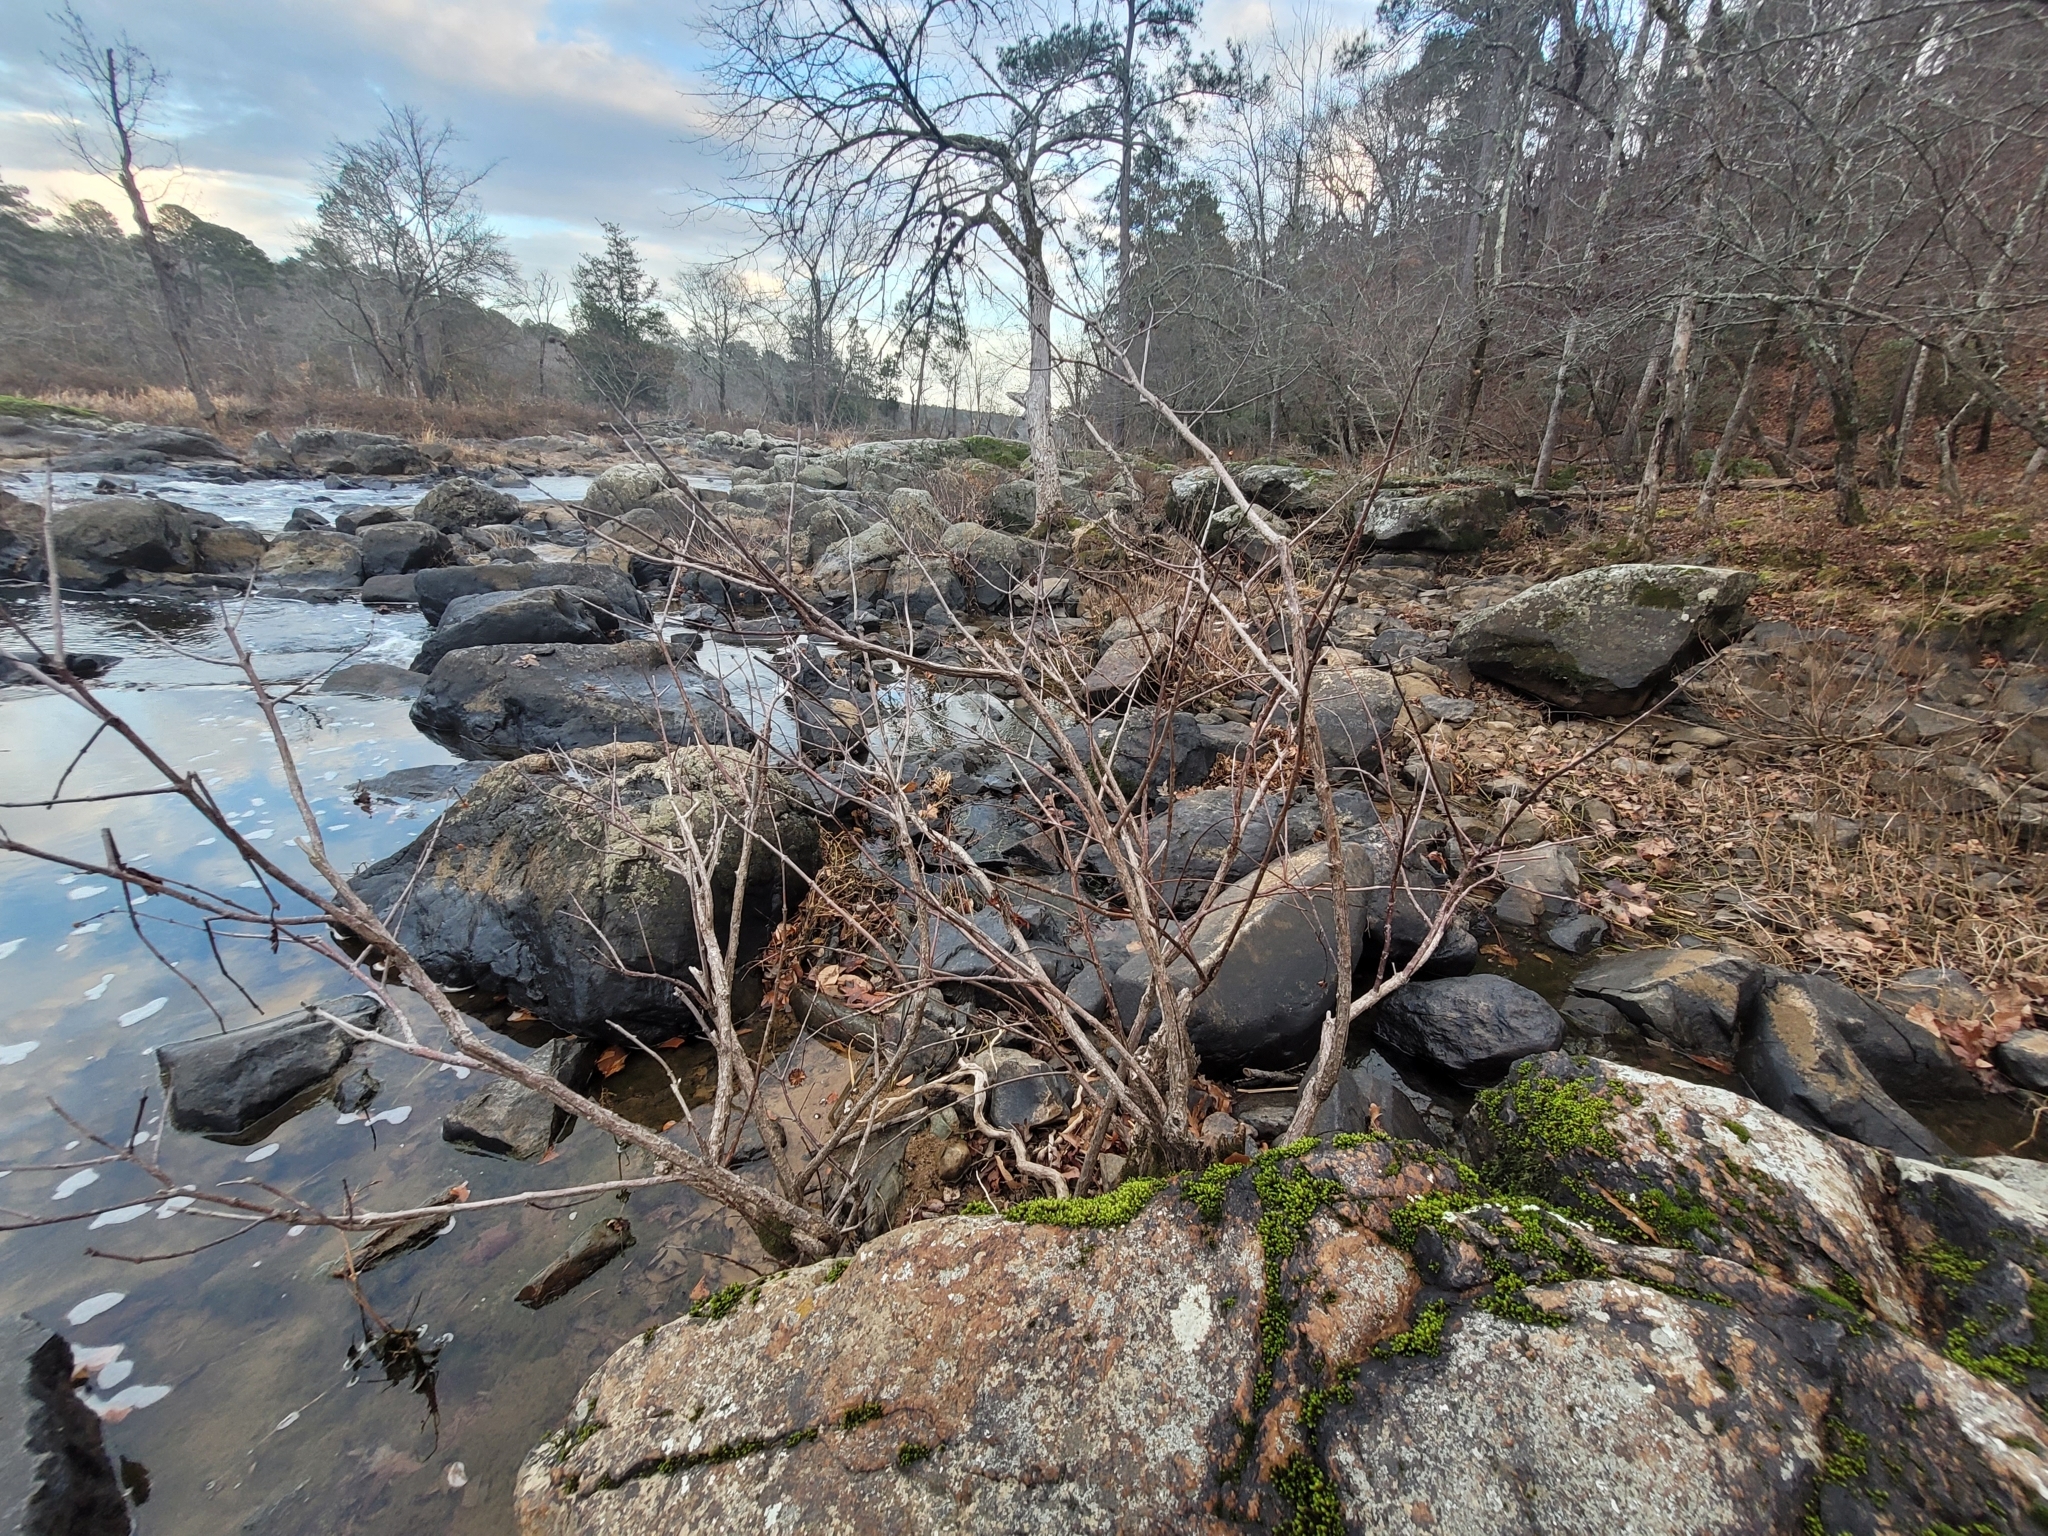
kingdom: Plantae
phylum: Tracheophyta
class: Magnoliopsida
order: Gentianales
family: Rubiaceae
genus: Cephalanthus
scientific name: Cephalanthus occidentalis
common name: Button-willow
